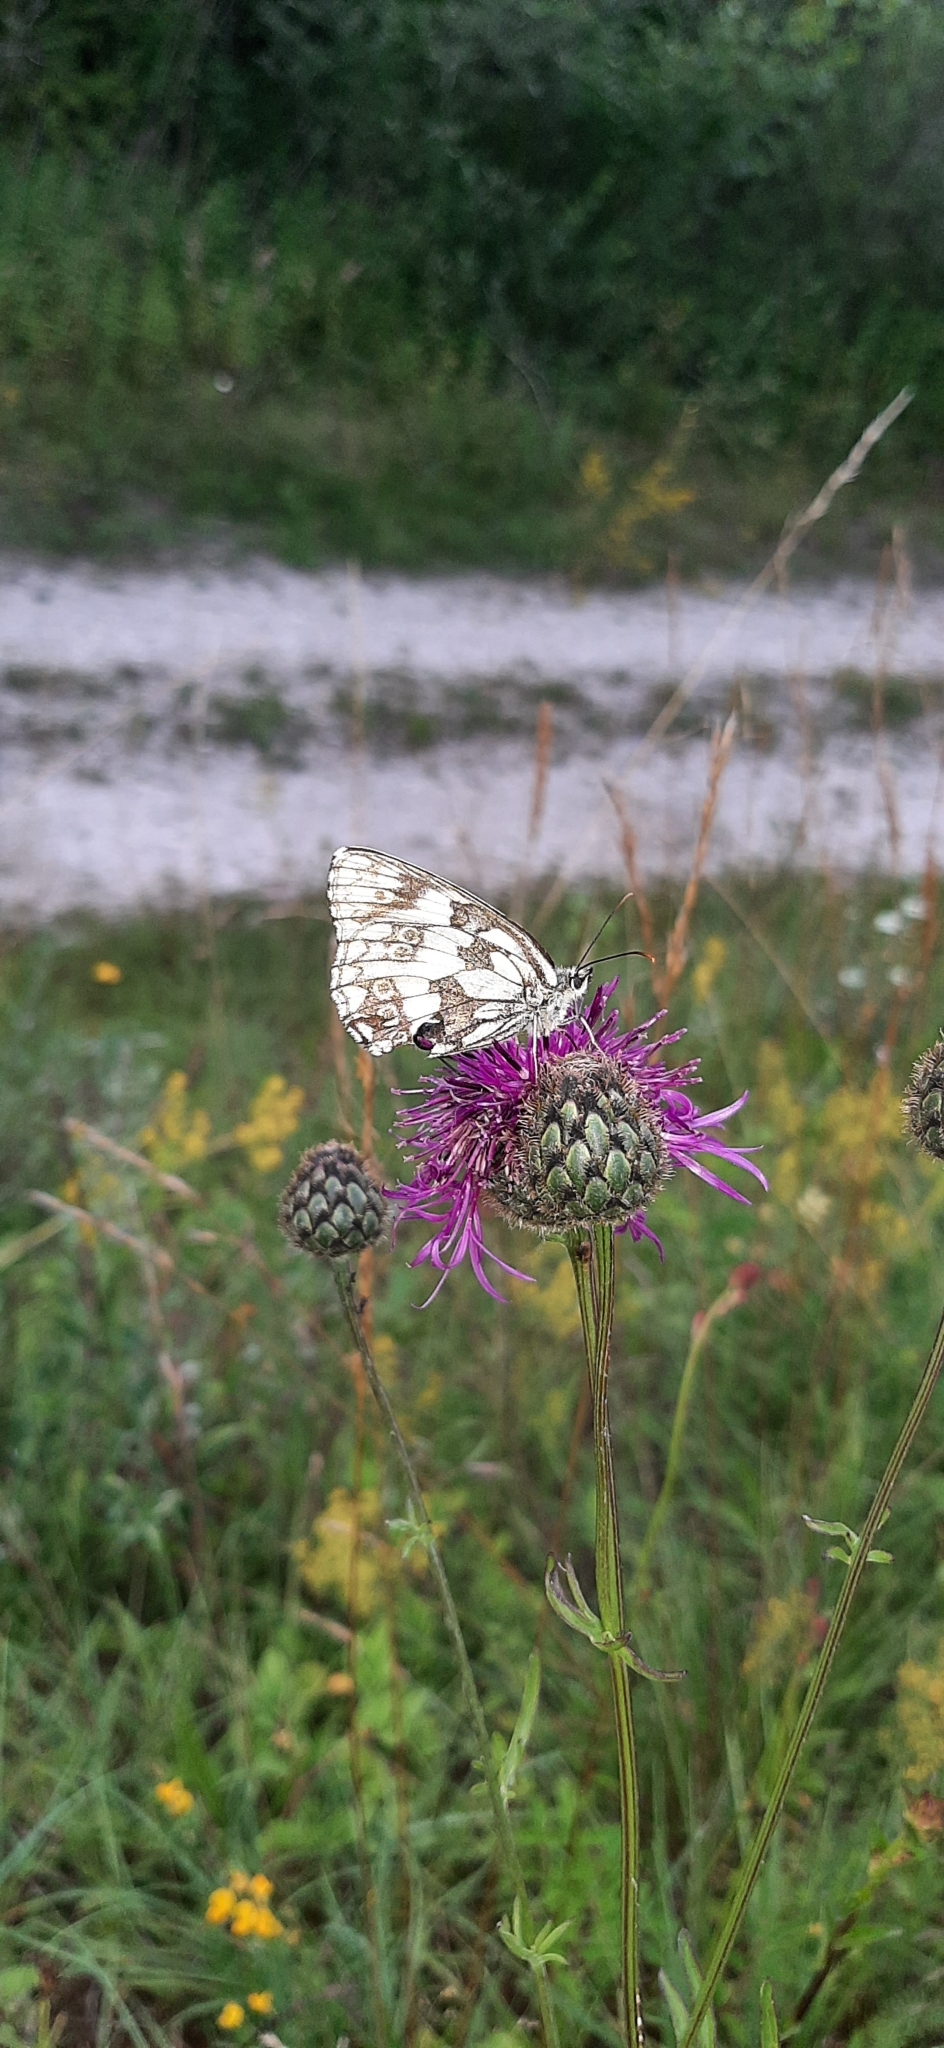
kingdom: Animalia
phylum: Arthropoda
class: Insecta
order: Lepidoptera
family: Nymphalidae
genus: Melanargia
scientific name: Melanargia galathea
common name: Marbled white
